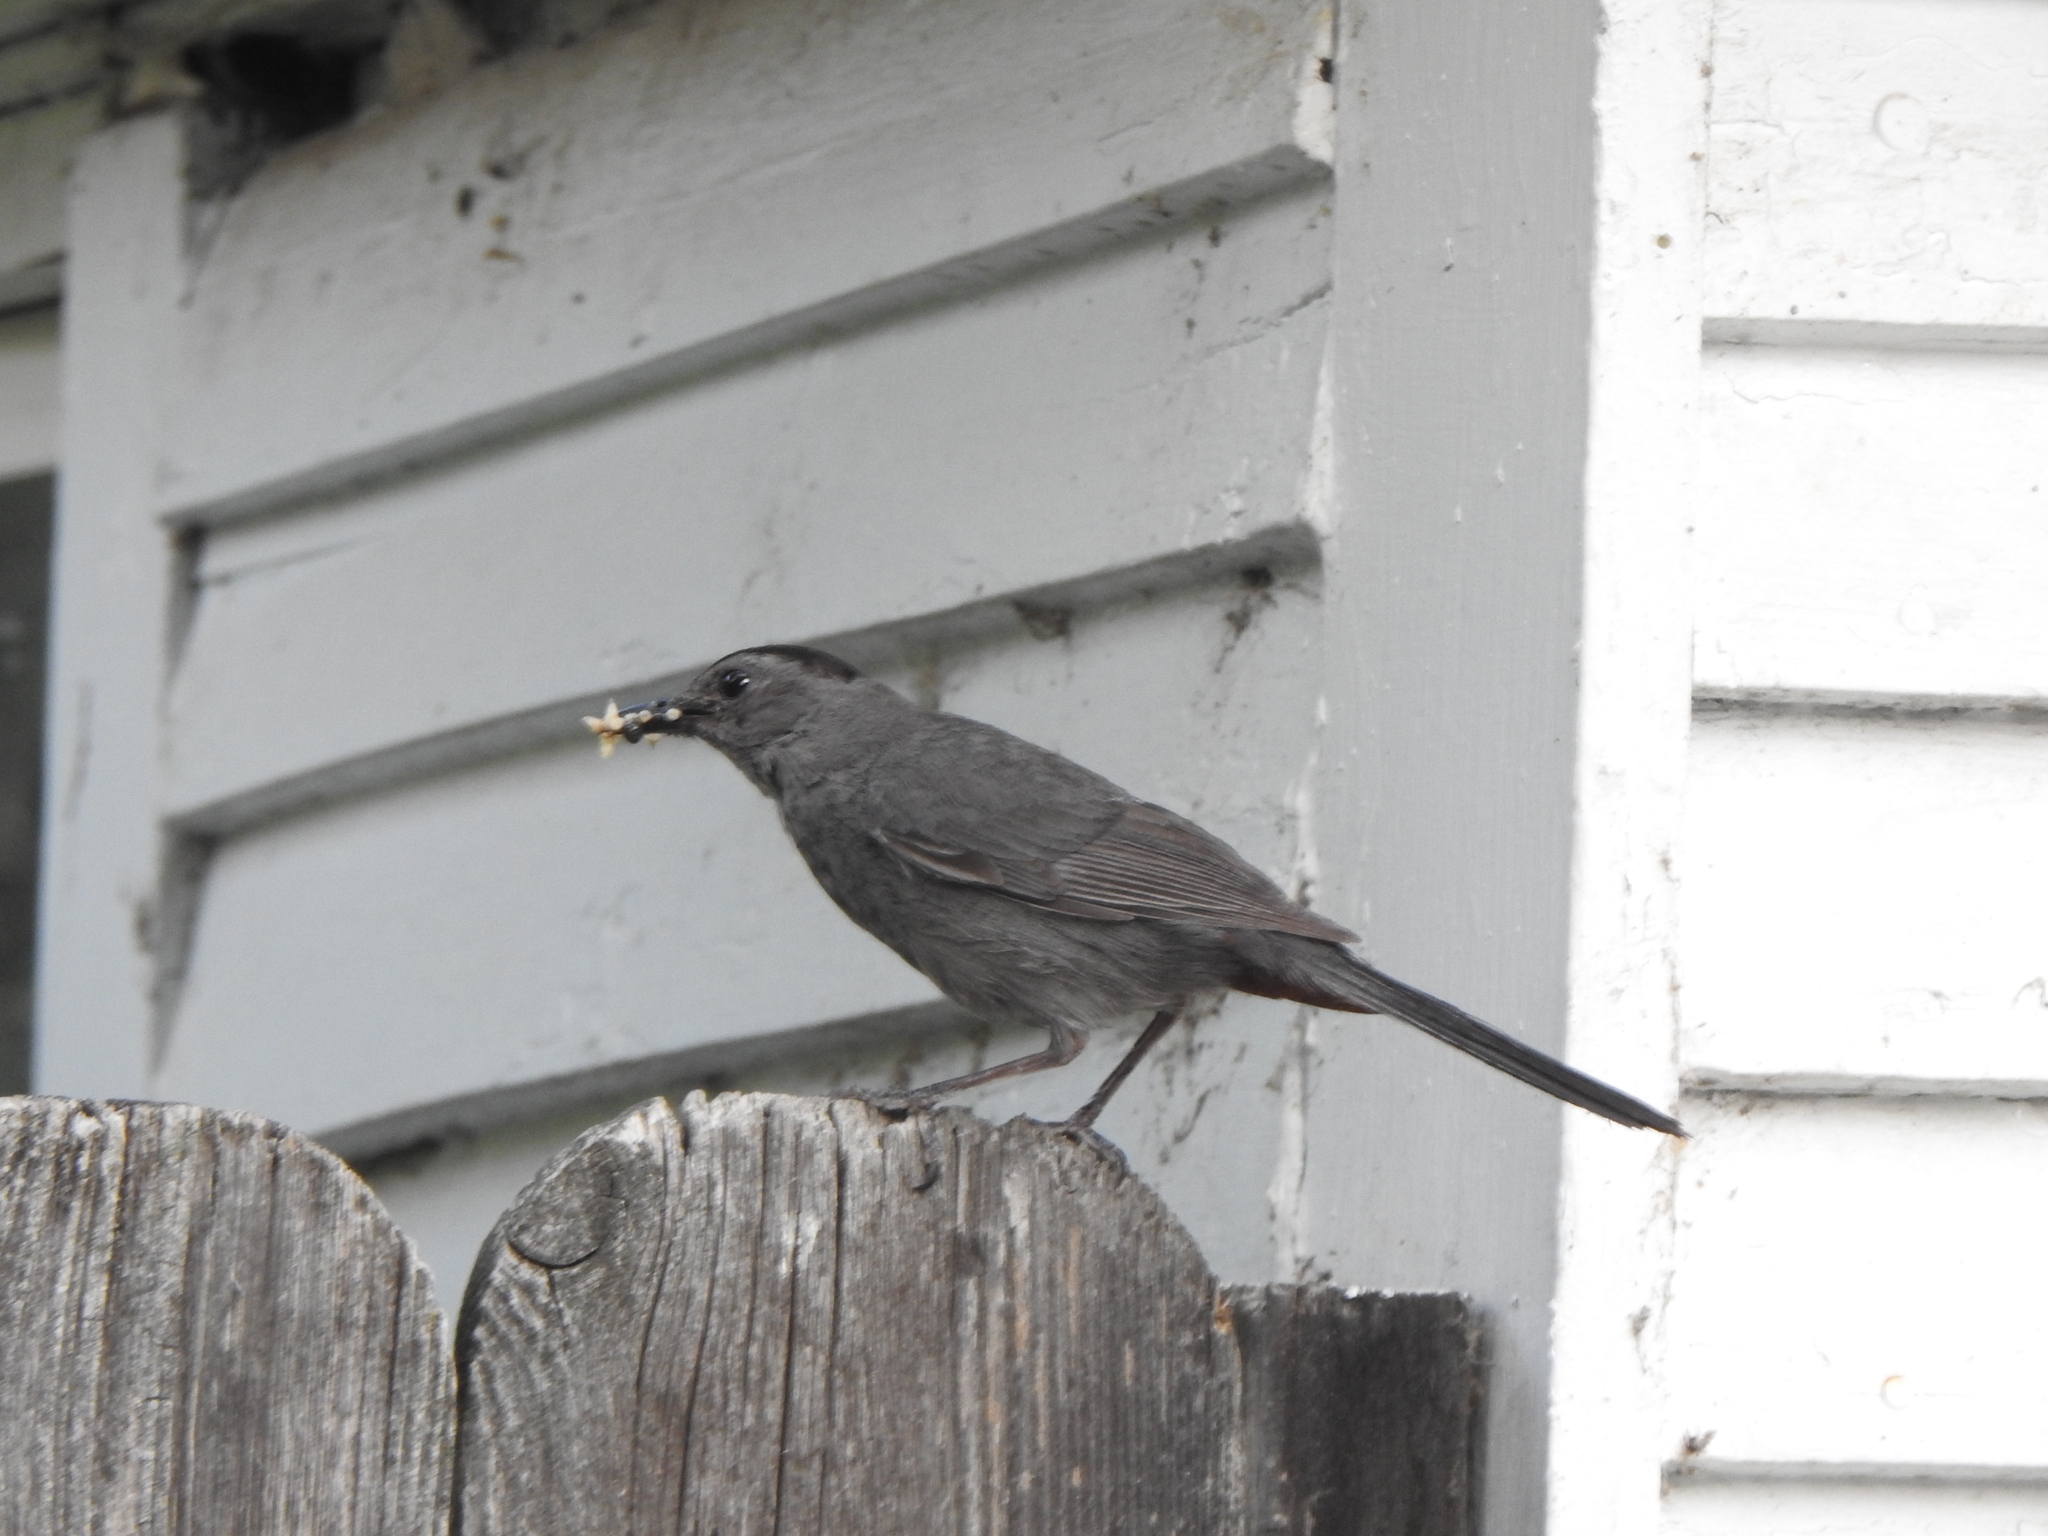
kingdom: Animalia
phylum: Chordata
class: Aves
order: Passeriformes
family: Mimidae
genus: Dumetella
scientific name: Dumetella carolinensis
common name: Gray catbird
